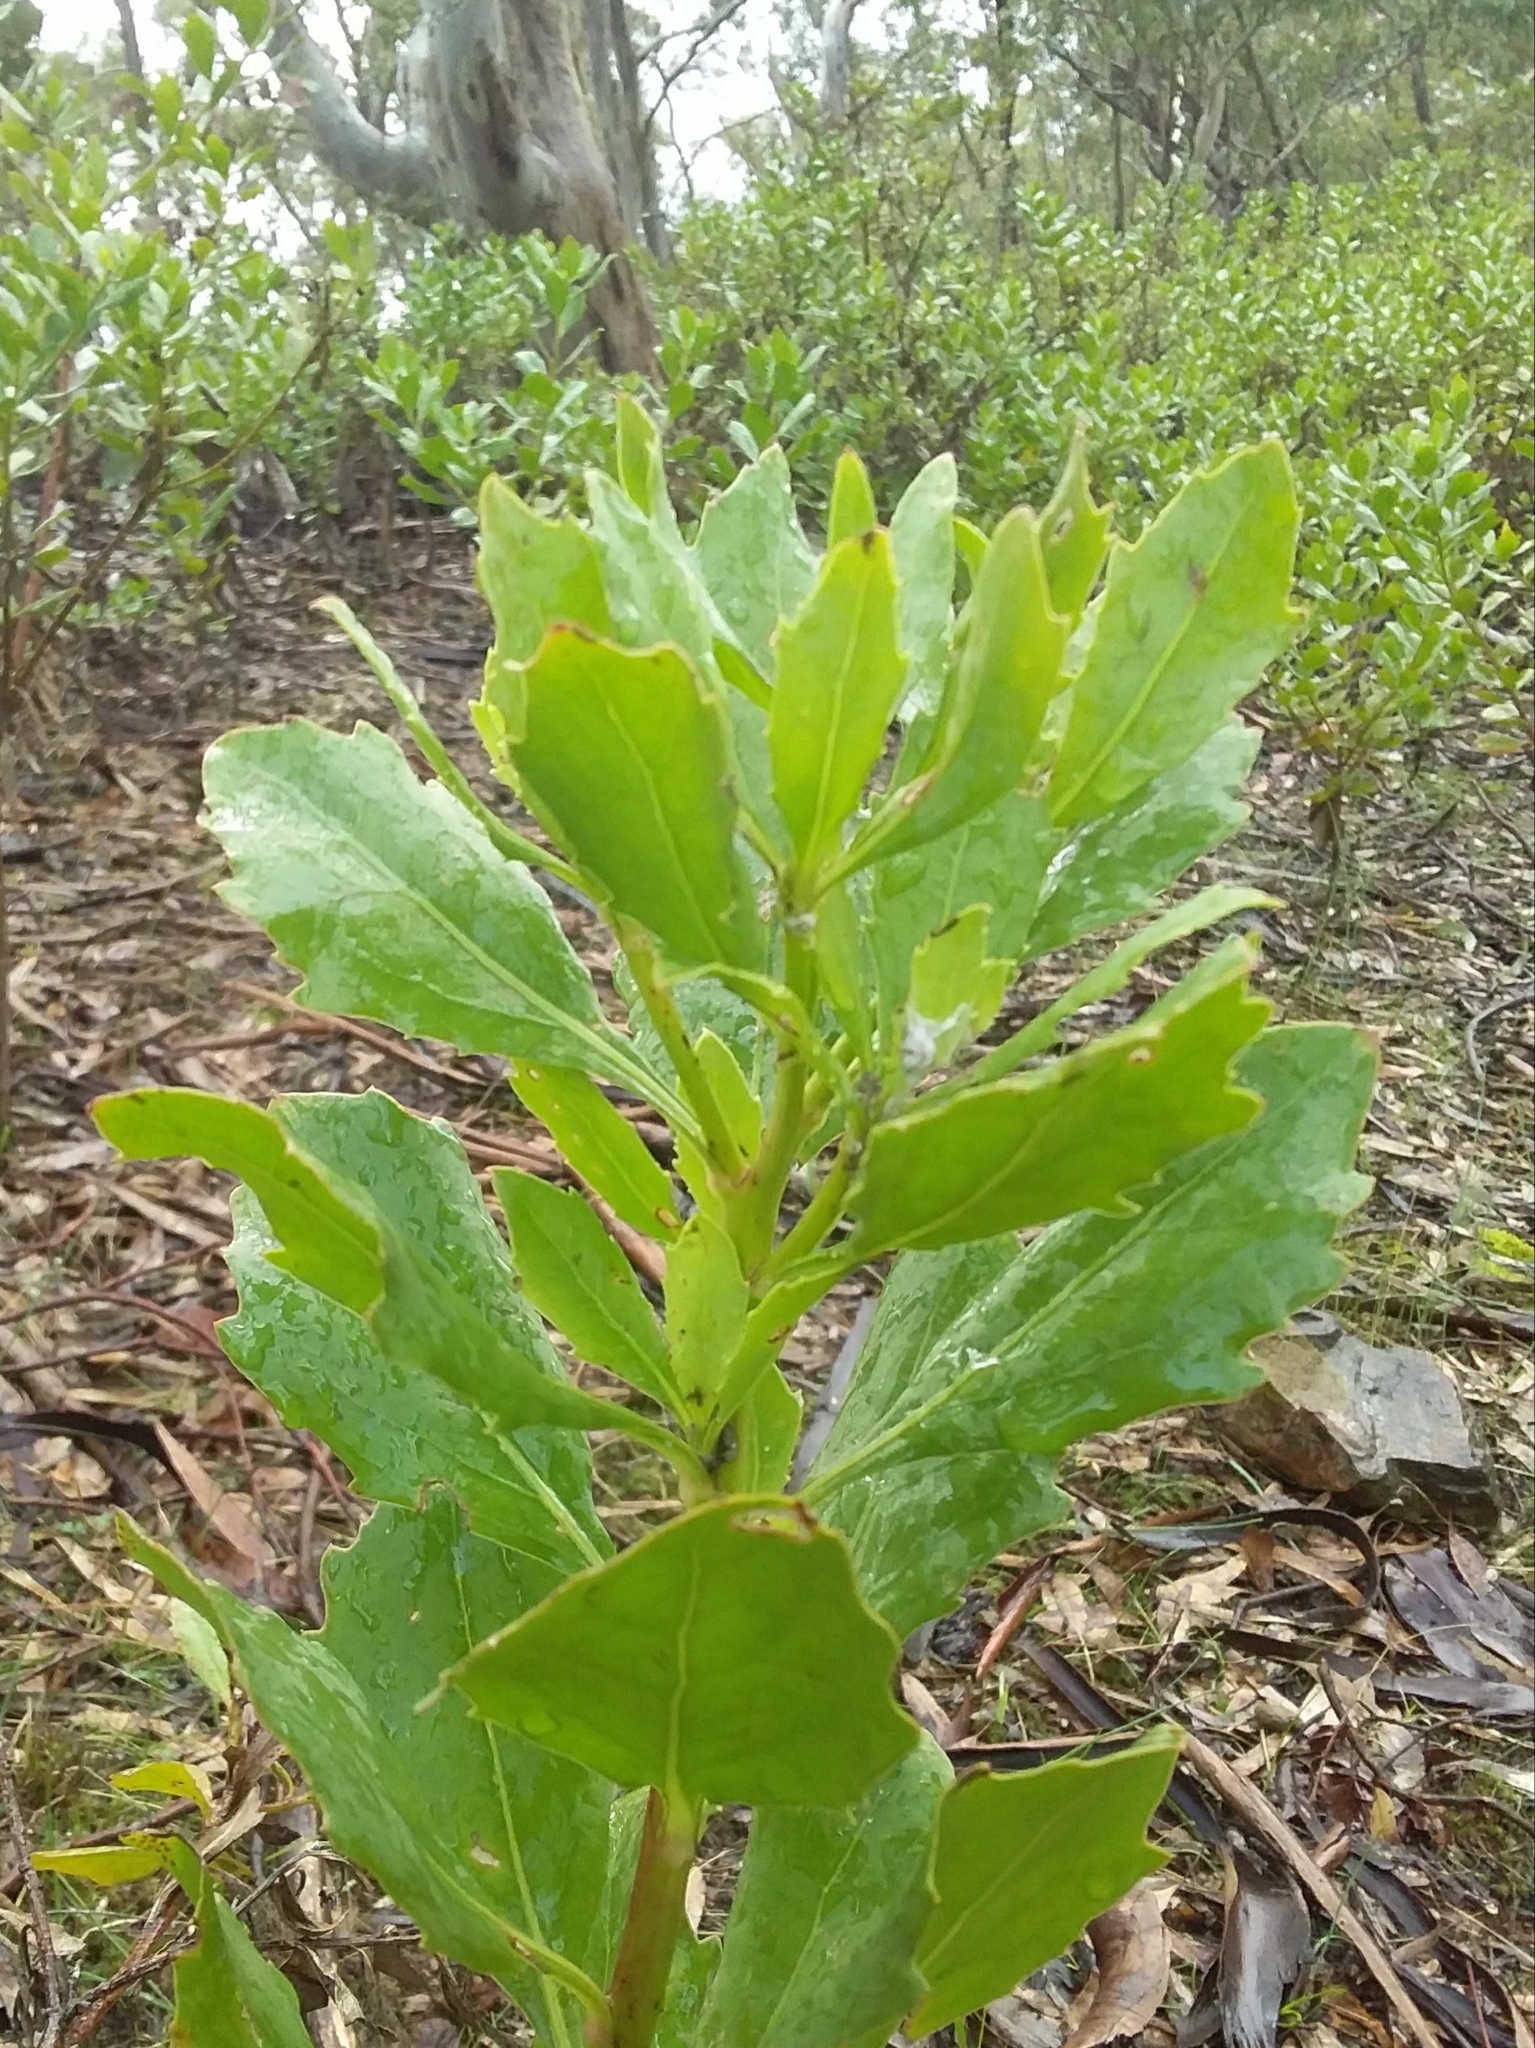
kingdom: Plantae
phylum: Tracheophyta
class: Magnoliopsida
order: Asterales
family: Asteraceae
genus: Osteospermum
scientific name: Osteospermum moniliferum
